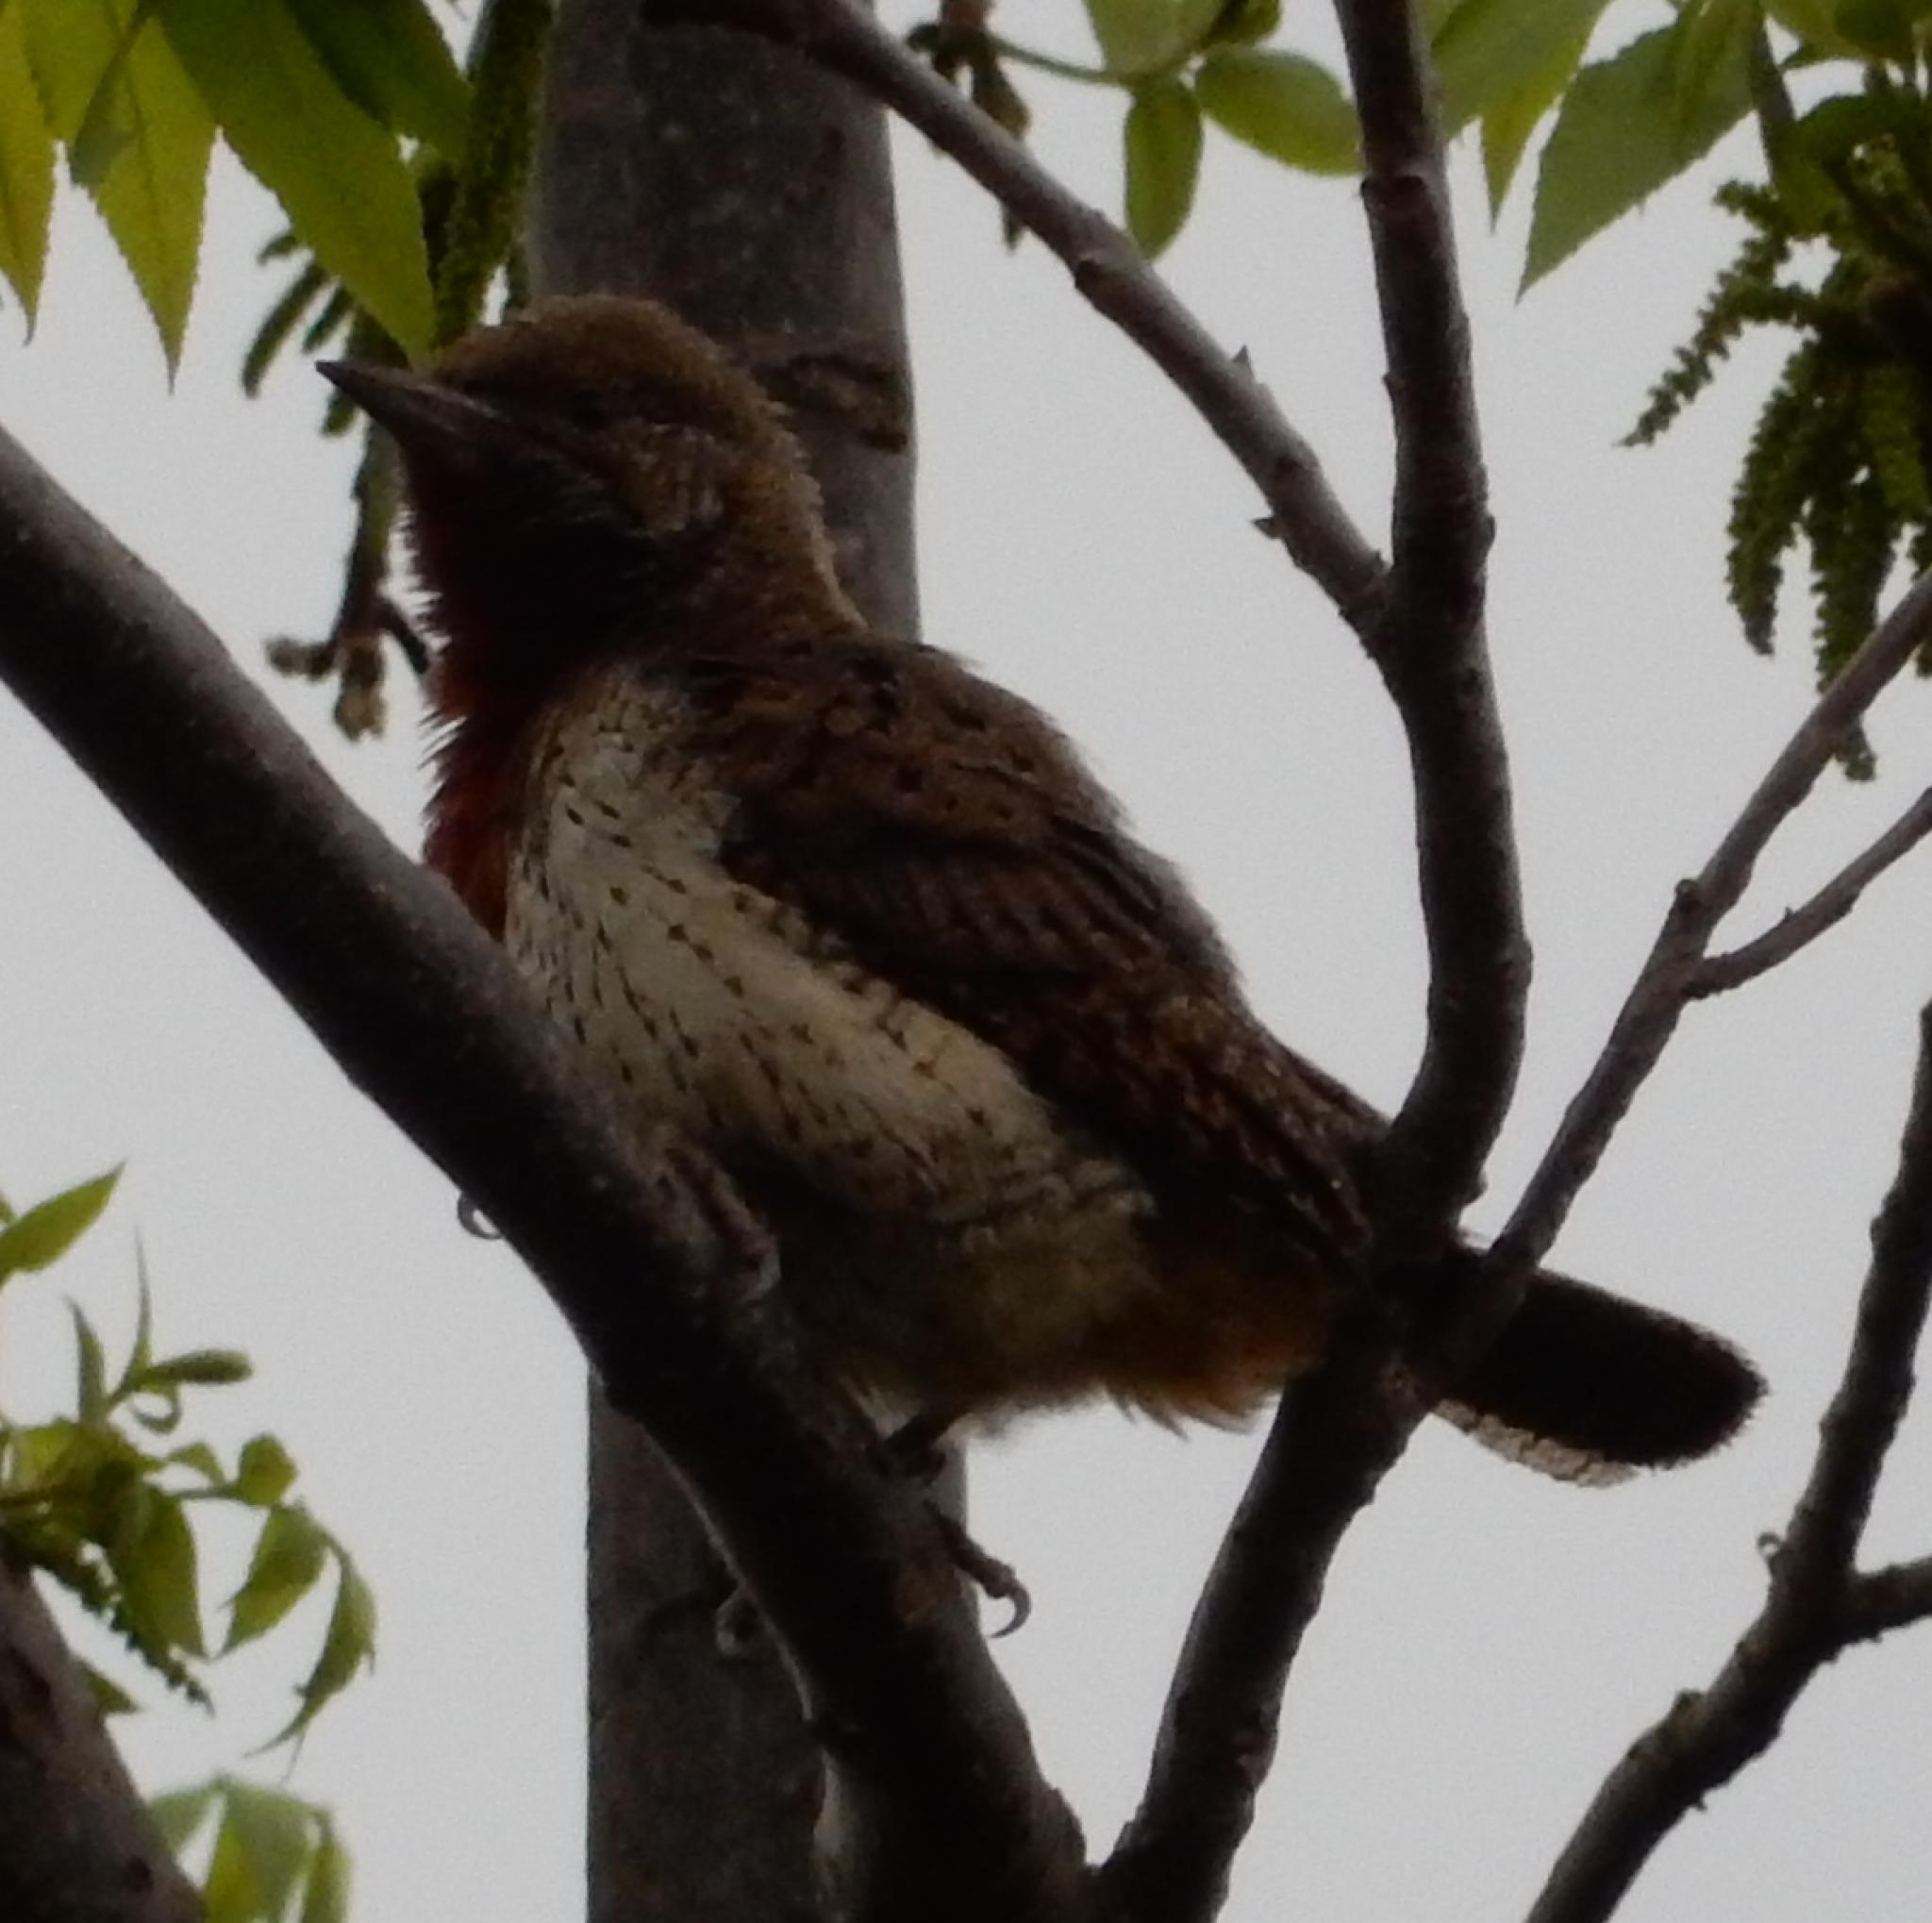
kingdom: Animalia
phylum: Chordata
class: Aves
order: Piciformes
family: Picidae
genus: Jynx
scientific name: Jynx ruficollis
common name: Red-throated wryneck
